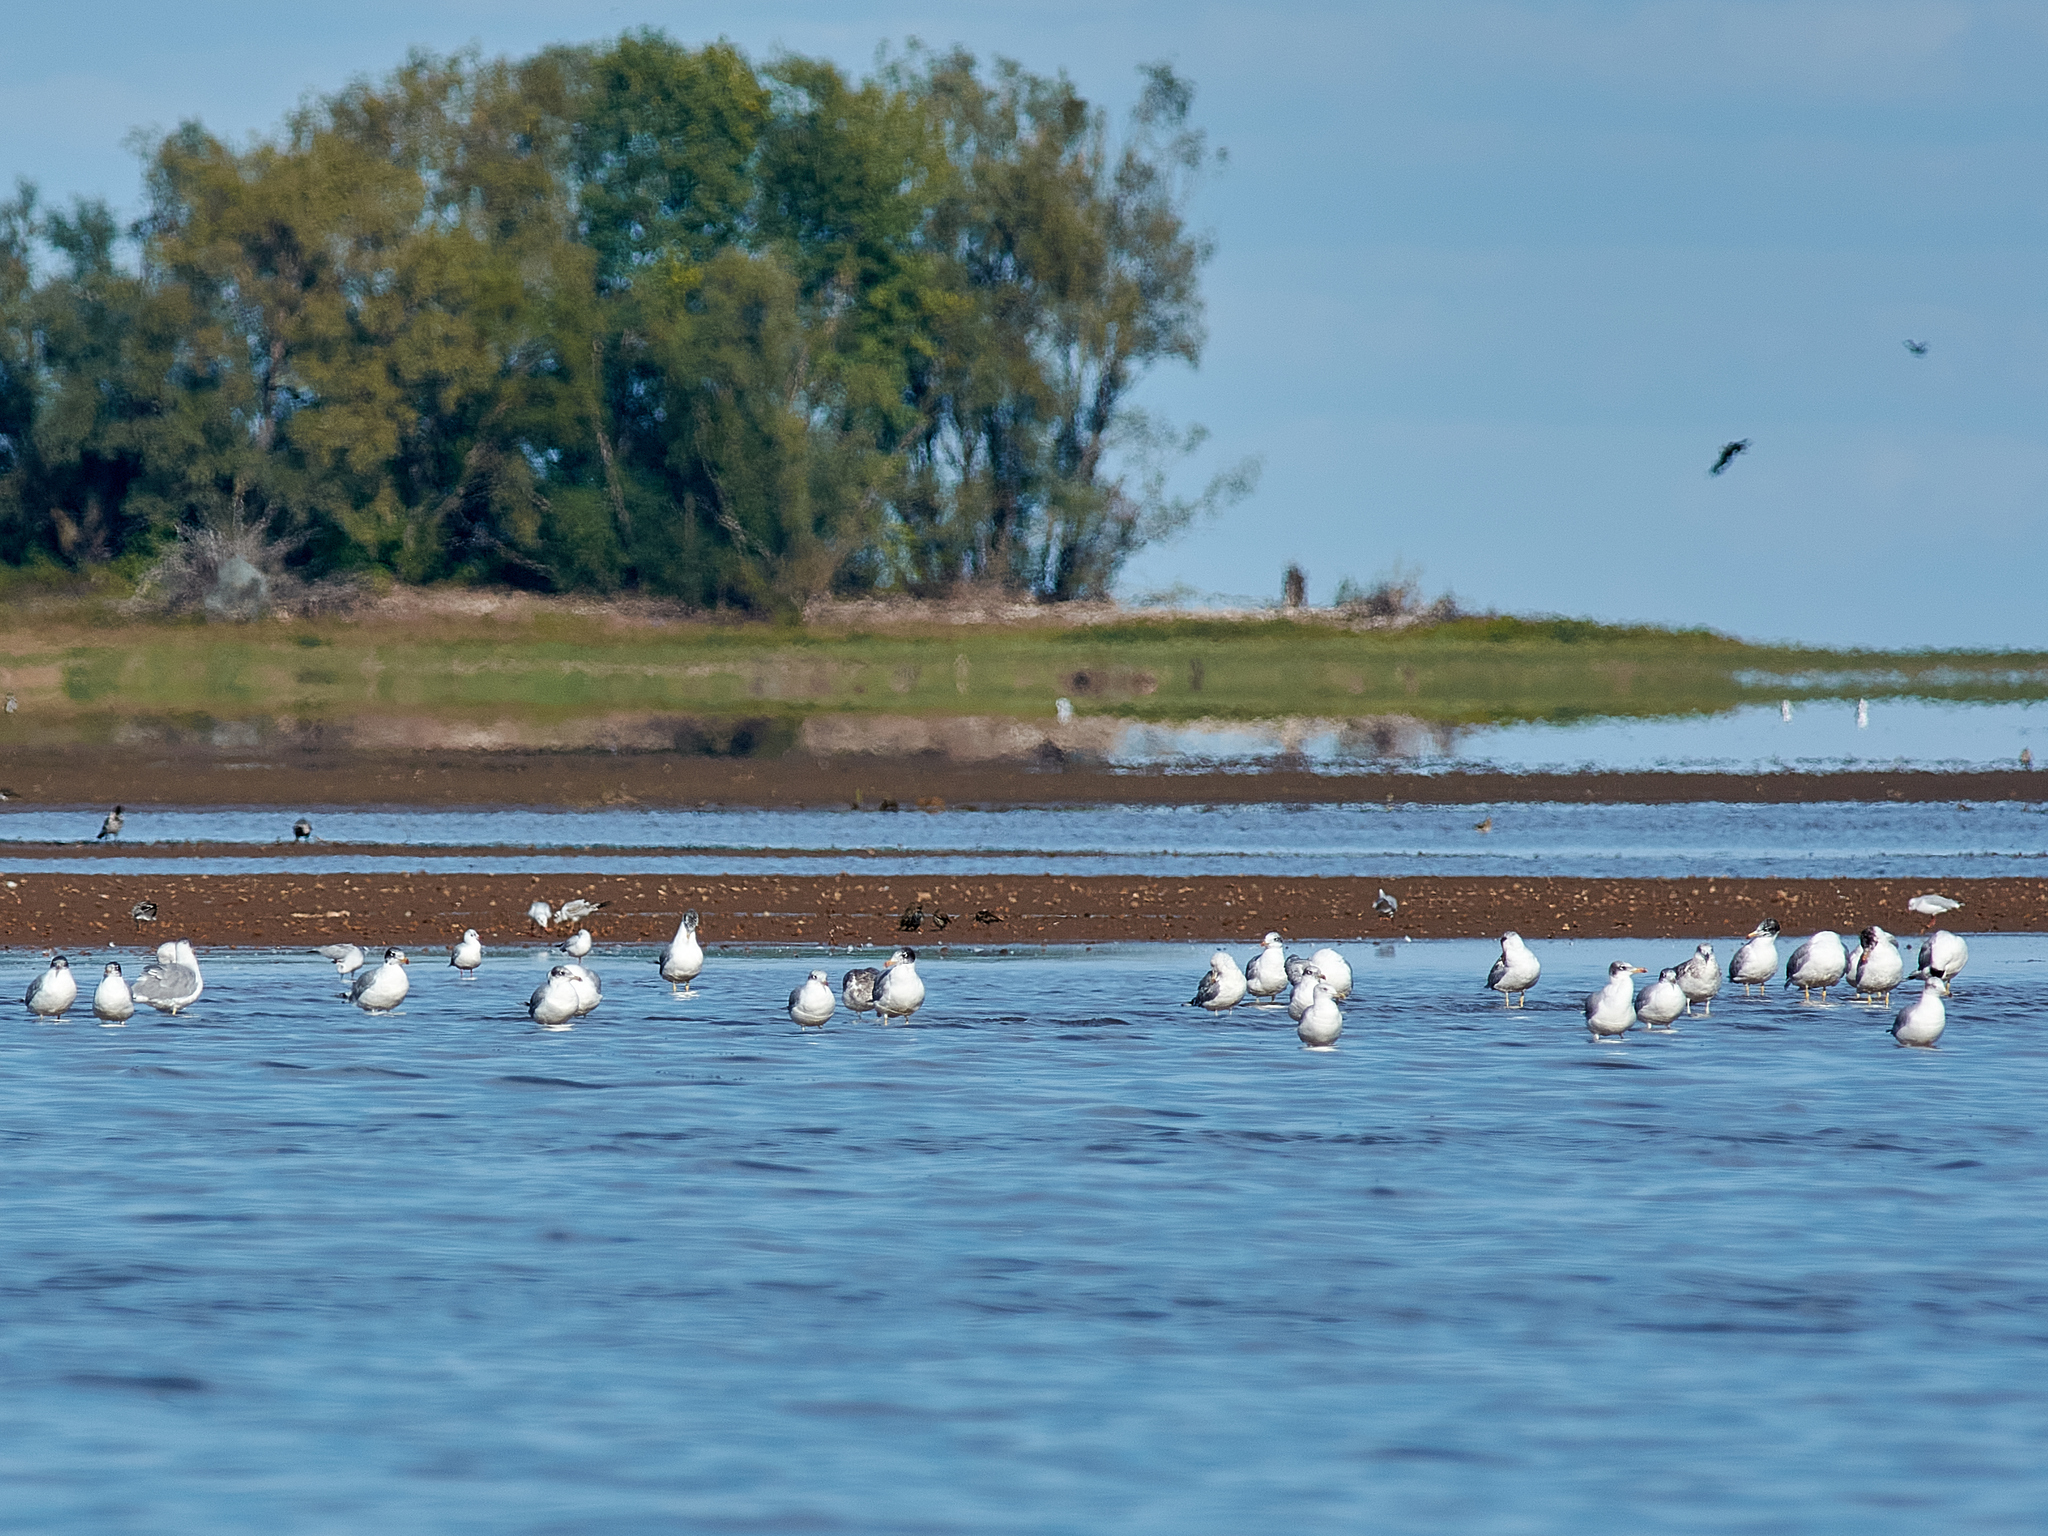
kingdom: Animalia
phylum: Chordata
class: Aves
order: Charadriiformes
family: Laridae
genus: Ichthyaetus
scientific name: Ichthyaetus ichthyaetus
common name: Pallas's gull
